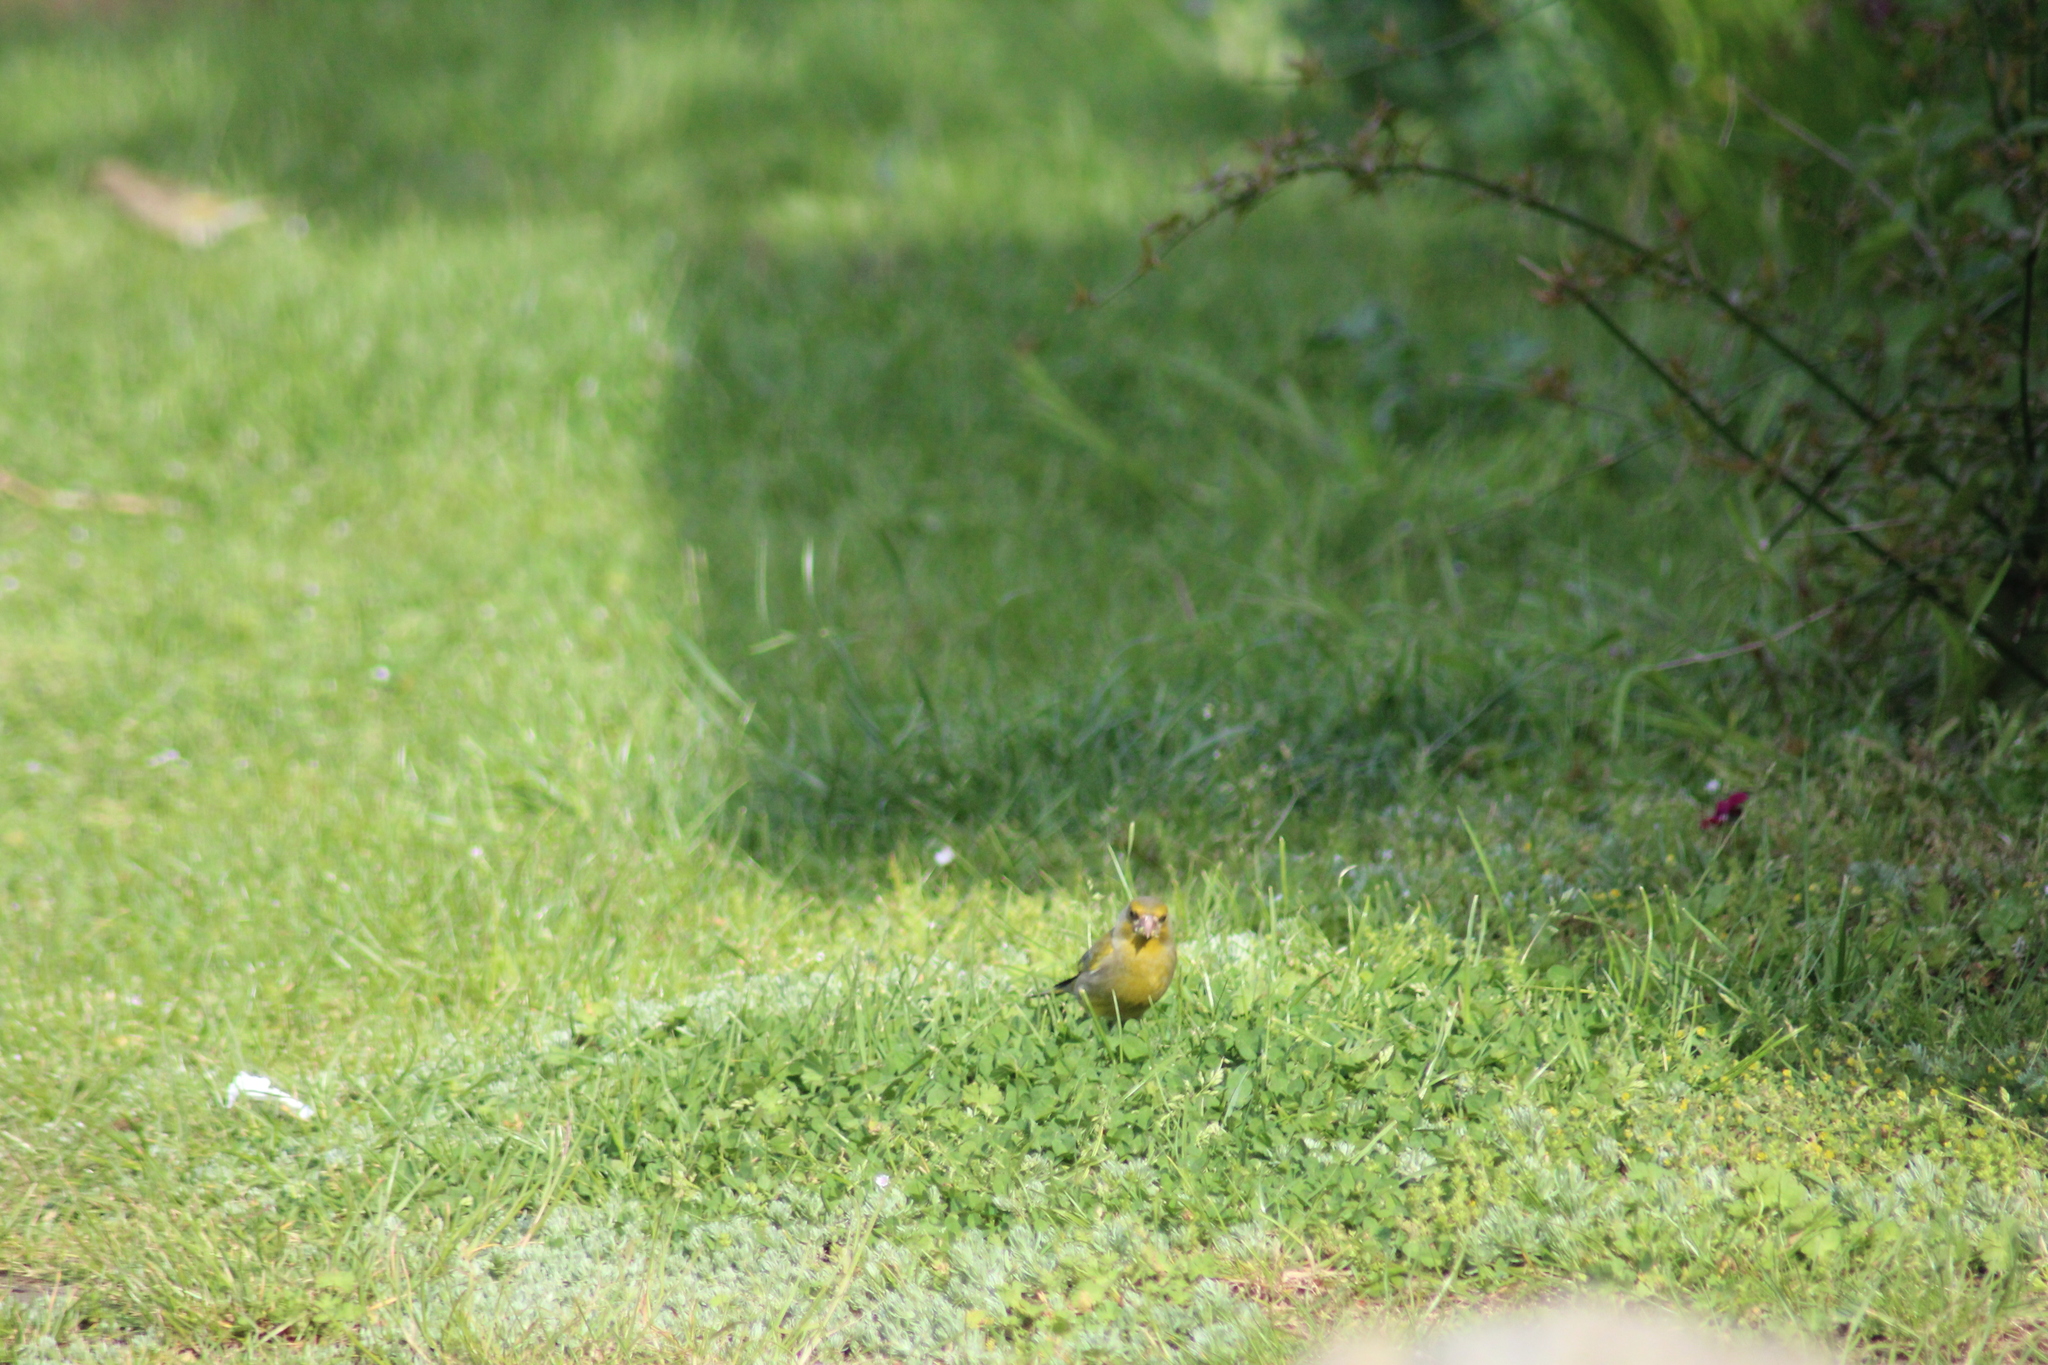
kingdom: Plantae
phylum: Tracheophyta
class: Liliopsida
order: Poales
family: Poaceae
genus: Chloris
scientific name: Chloris chloris
